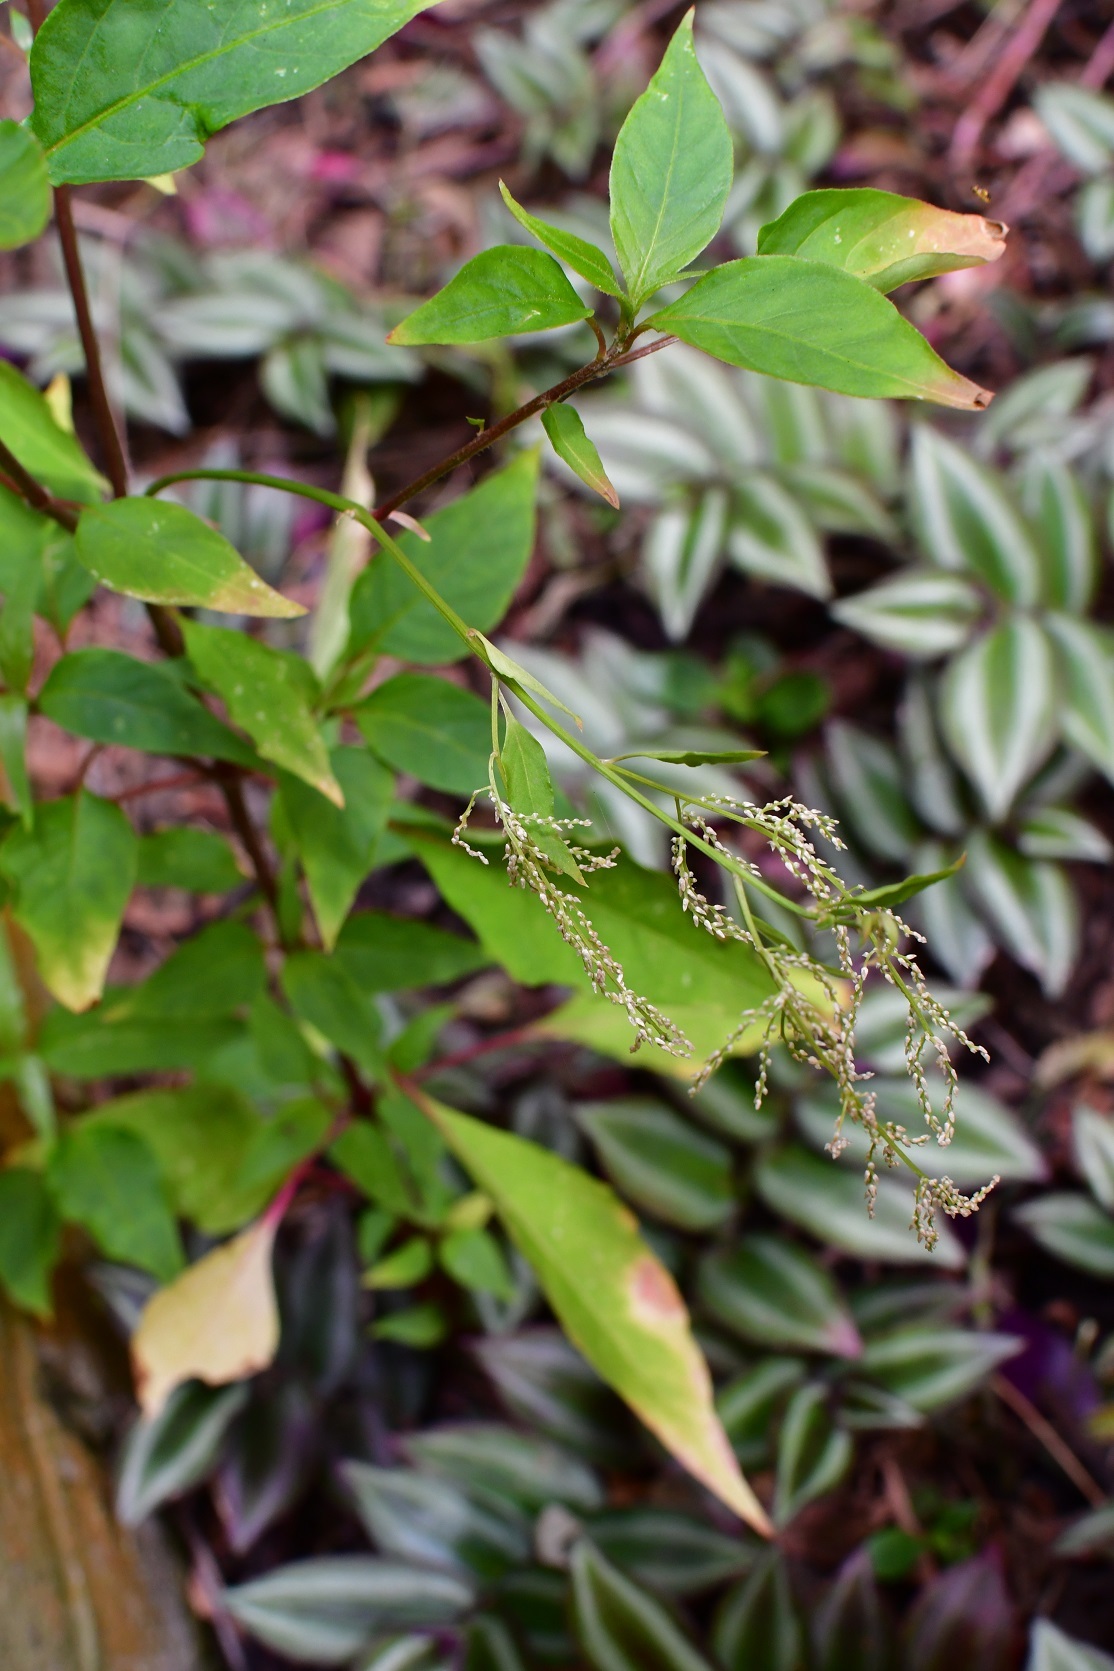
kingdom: Plantae
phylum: Tracheophyta
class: Magnoliopsida
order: Caryophyllales
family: Amaranthaceae
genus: Iresine
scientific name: Iresine rhizomatosa
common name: Juda's-bush
